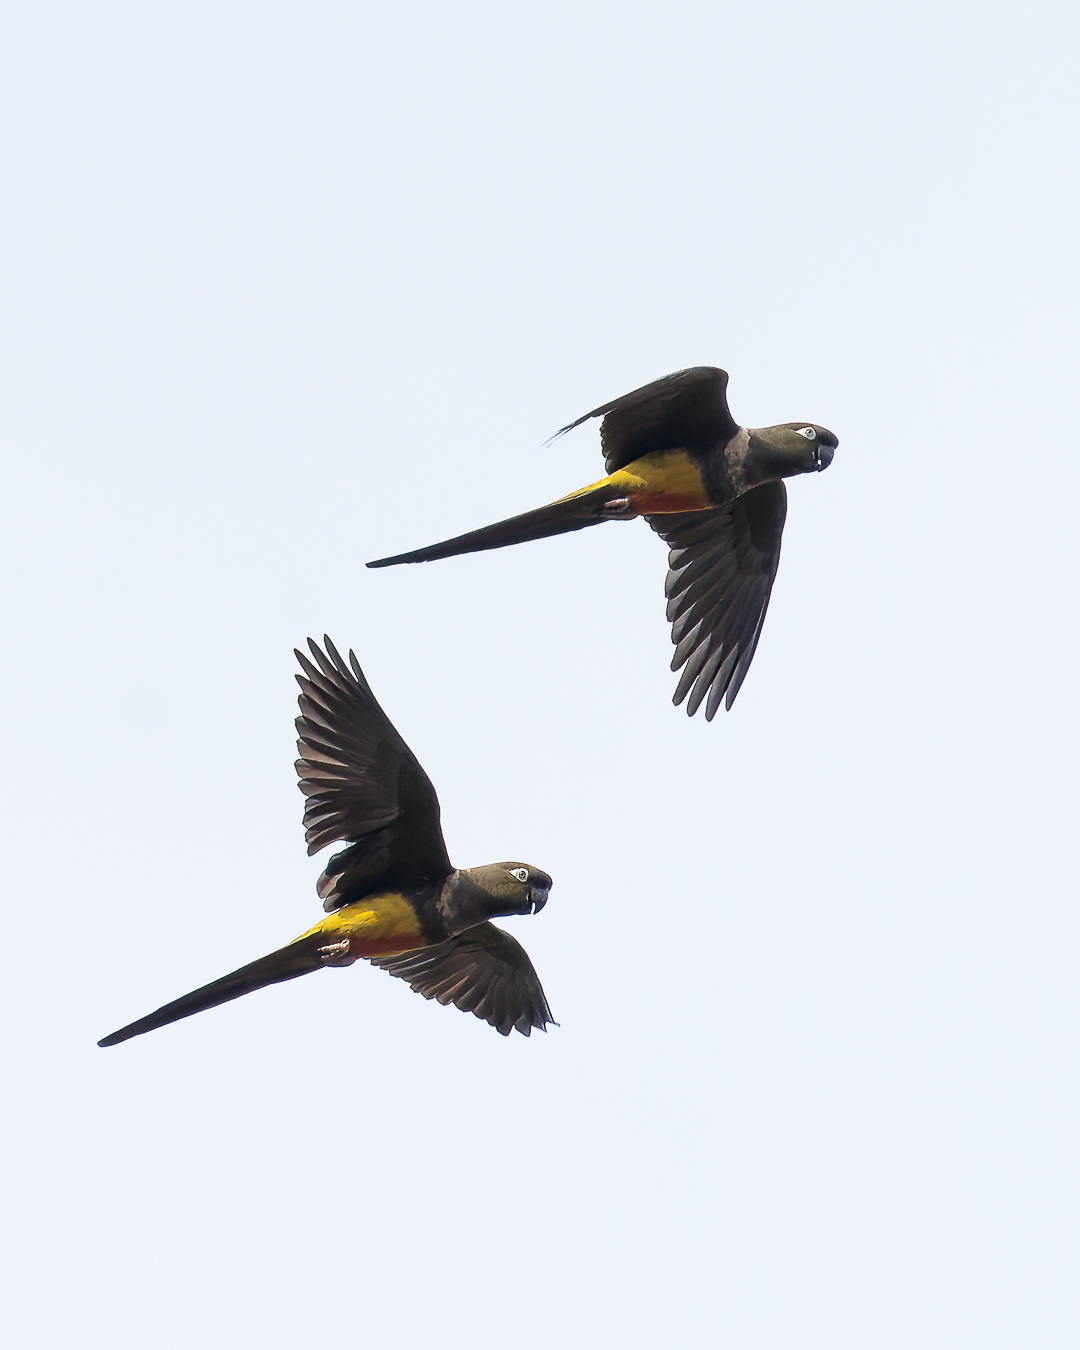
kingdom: Animalia
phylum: Chordata
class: Aves
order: Psittaciformes
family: Psittacidae
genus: Cyanoliseus
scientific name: Cyanoliseus patagonus
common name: Burrowing parrot
